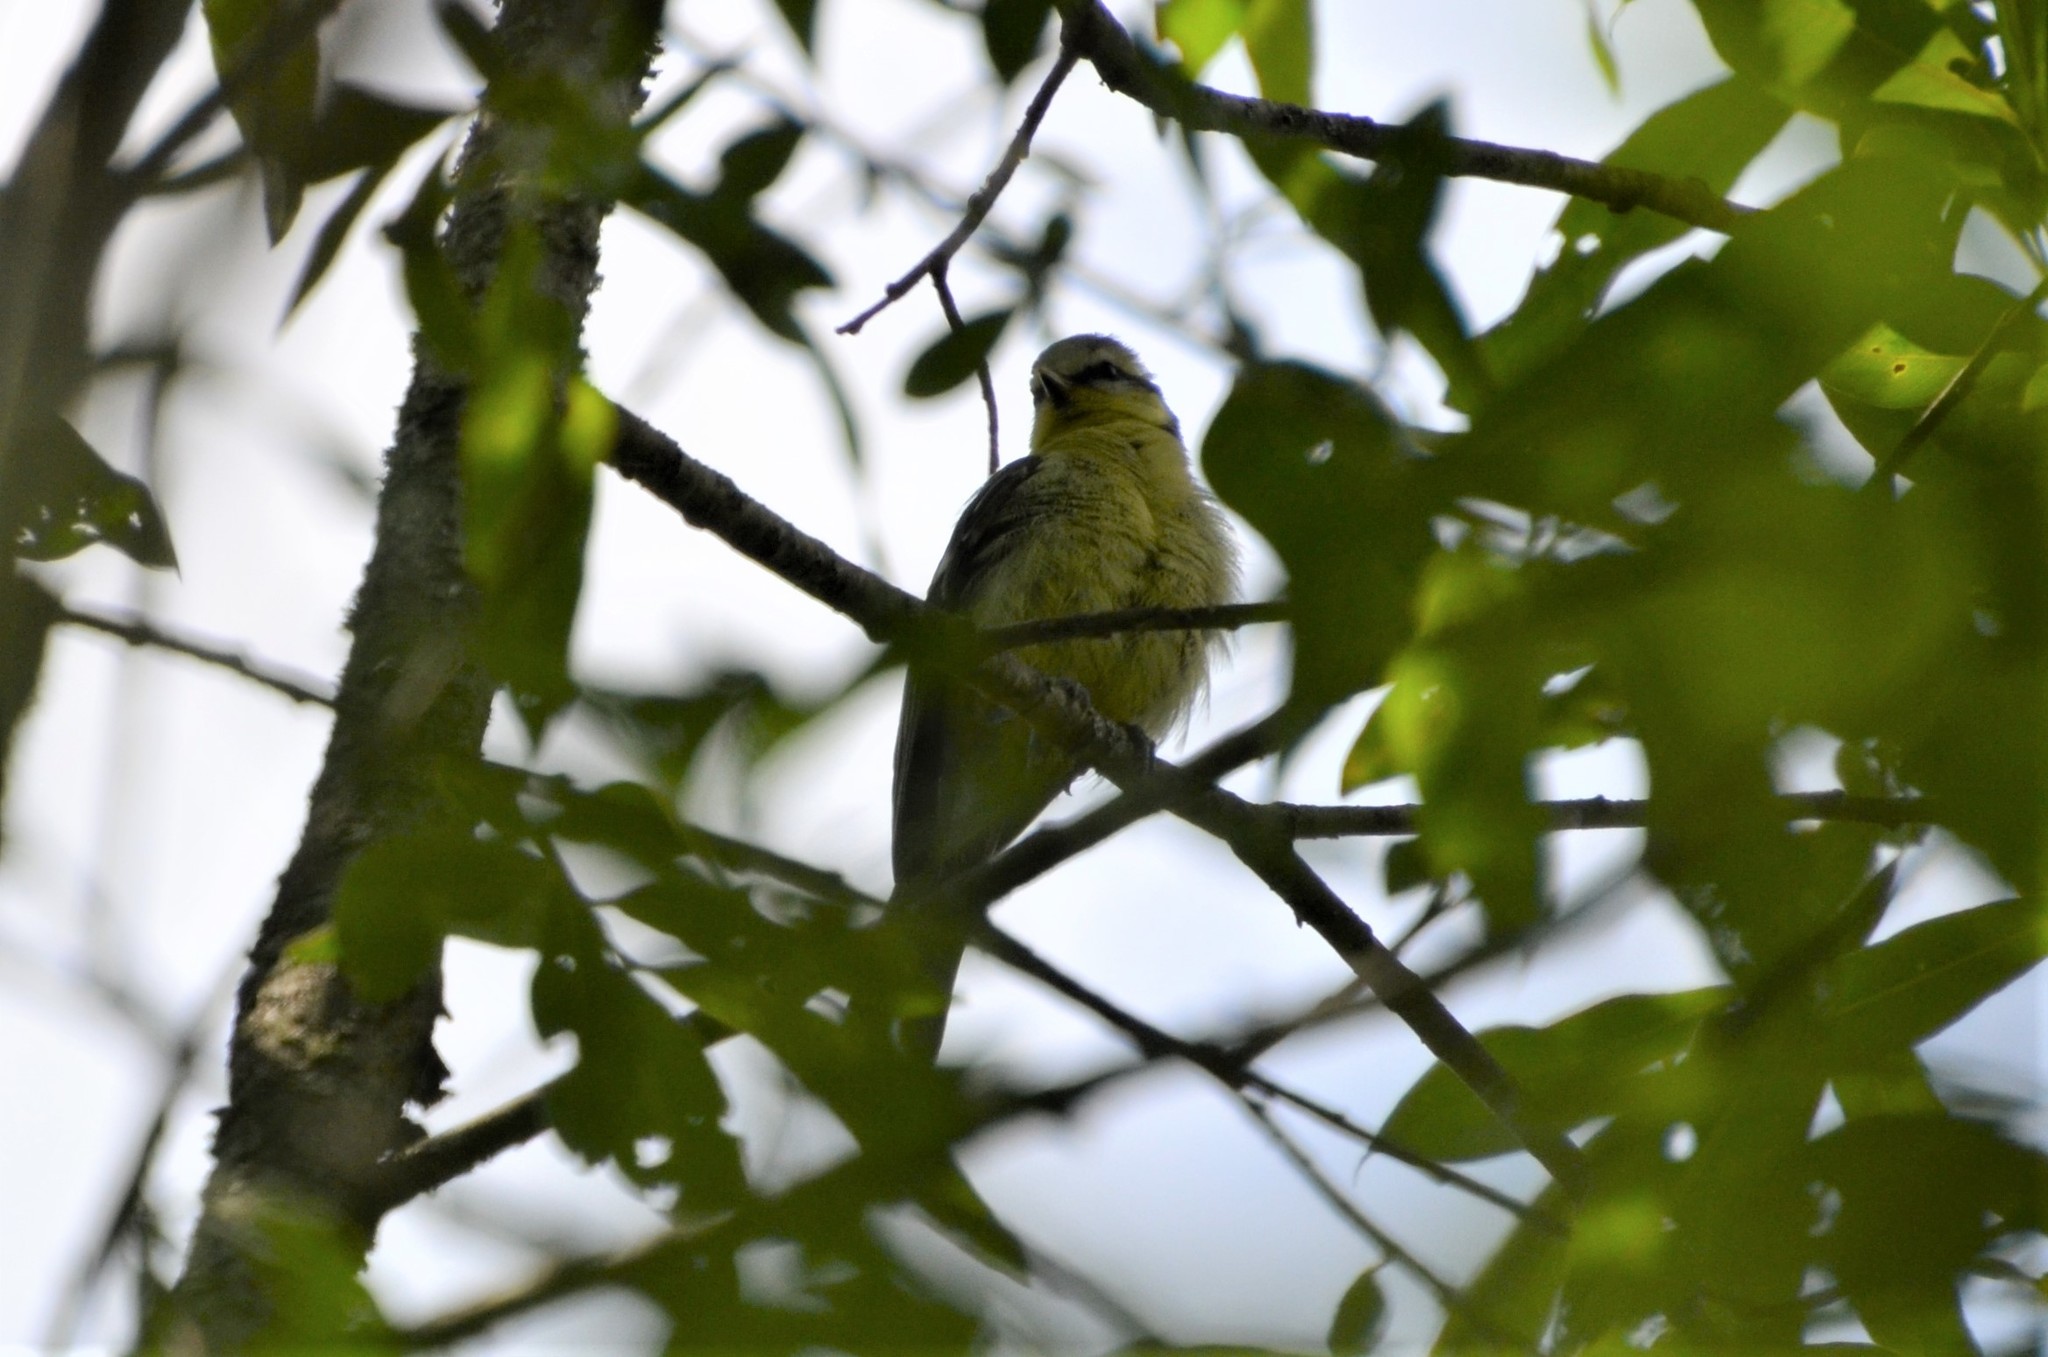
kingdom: Animalia
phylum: Chordata
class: Aves
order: Passeriformes
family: Paridae
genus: Cyanistes
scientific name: Cyanistes caeruleus
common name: Eurasian blue tit
